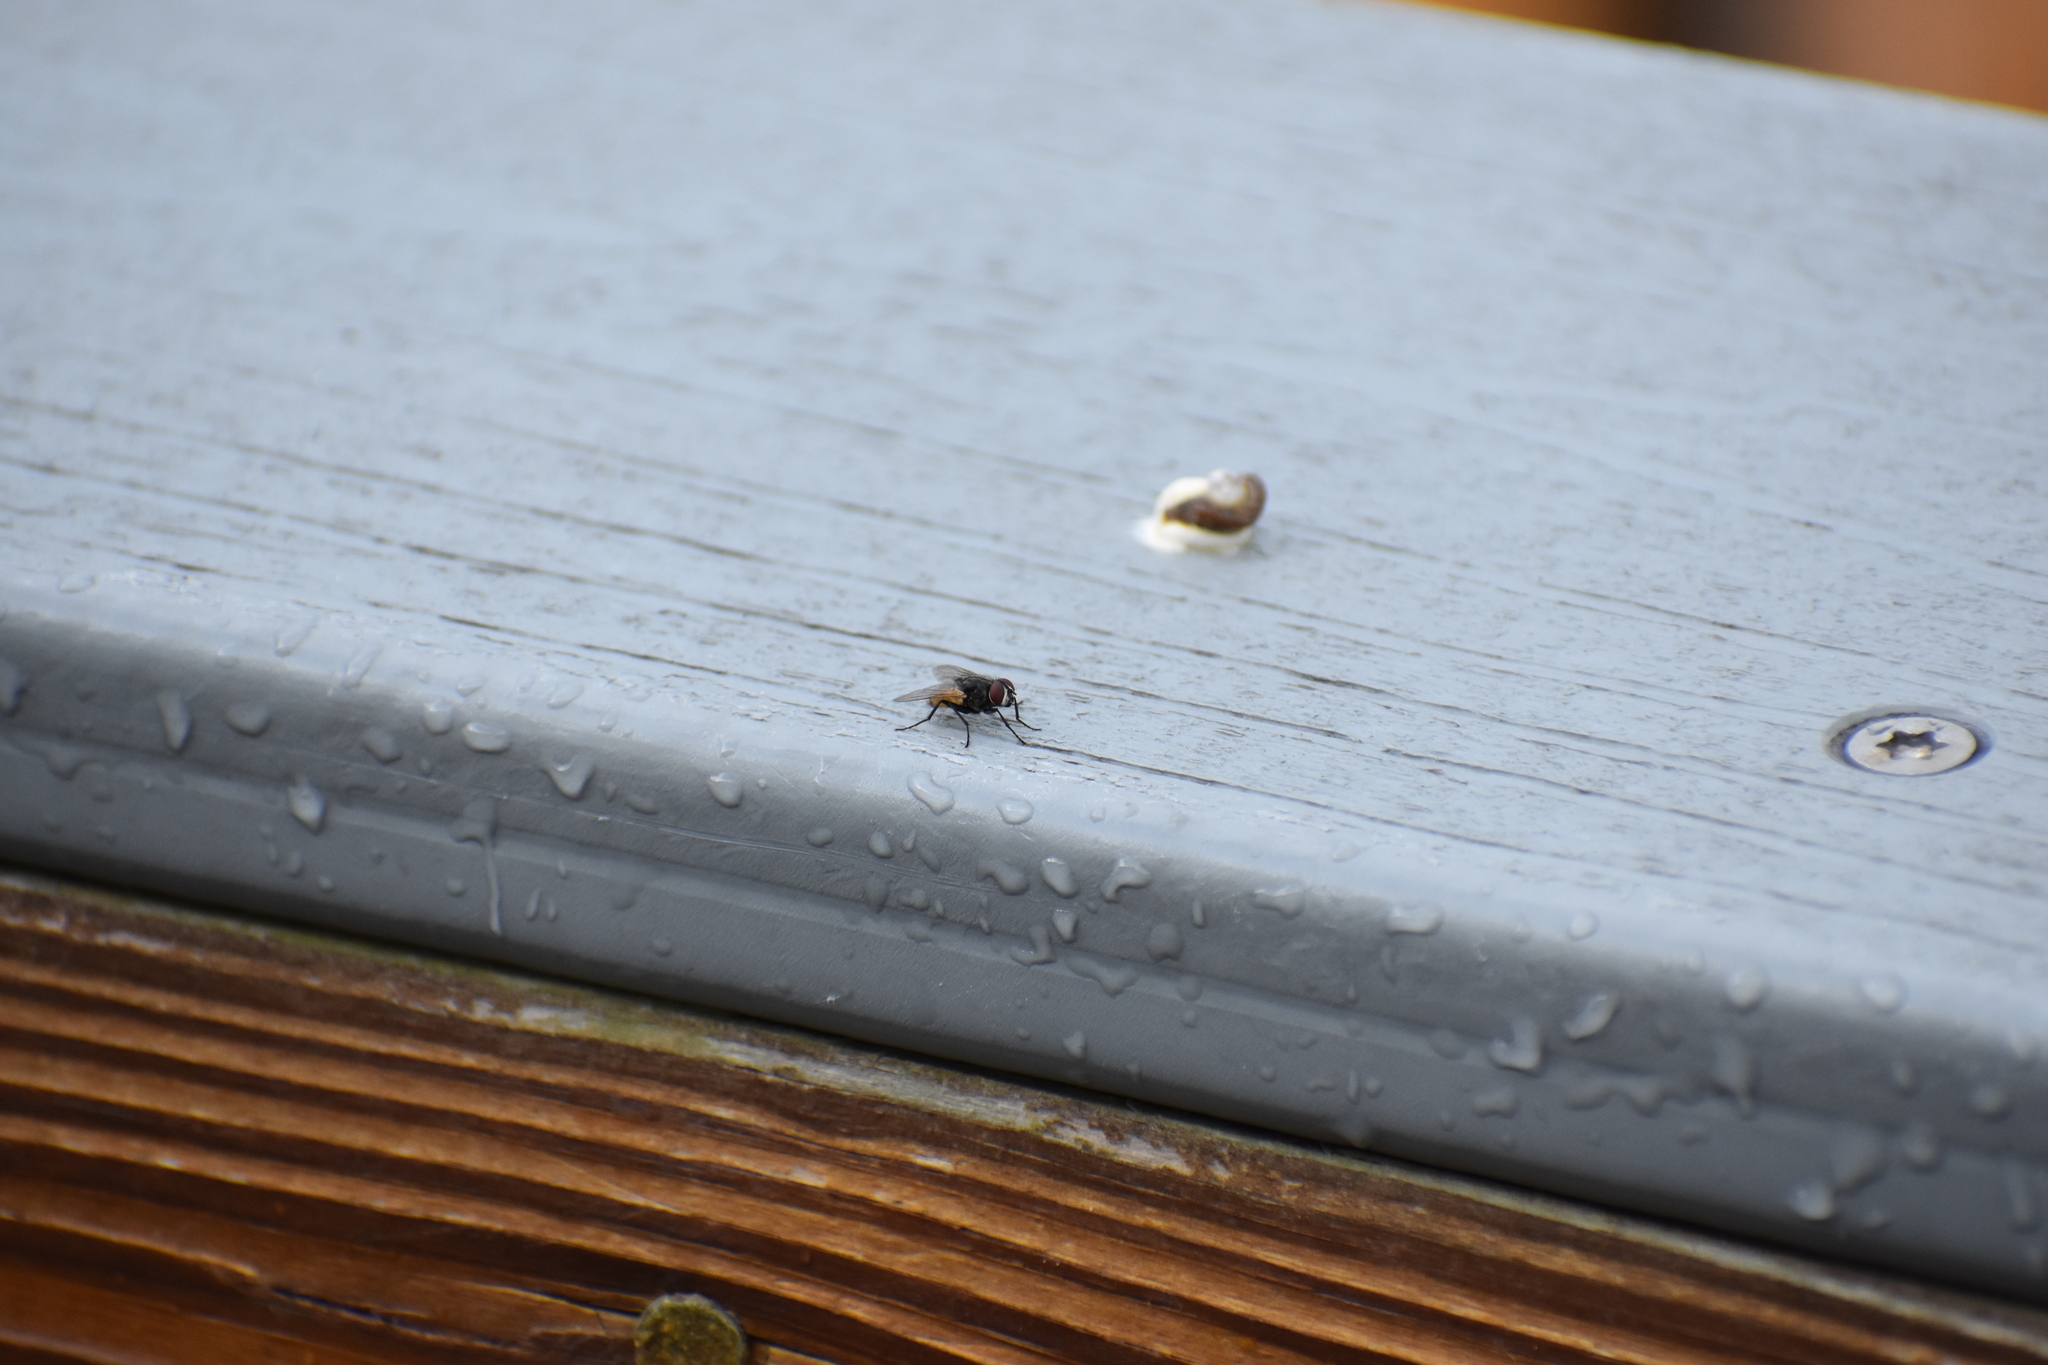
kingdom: Animalia
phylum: Arthropoda
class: Insecta
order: Diptera
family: Muscidae
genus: Musca
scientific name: Musca domestica
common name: House fly
